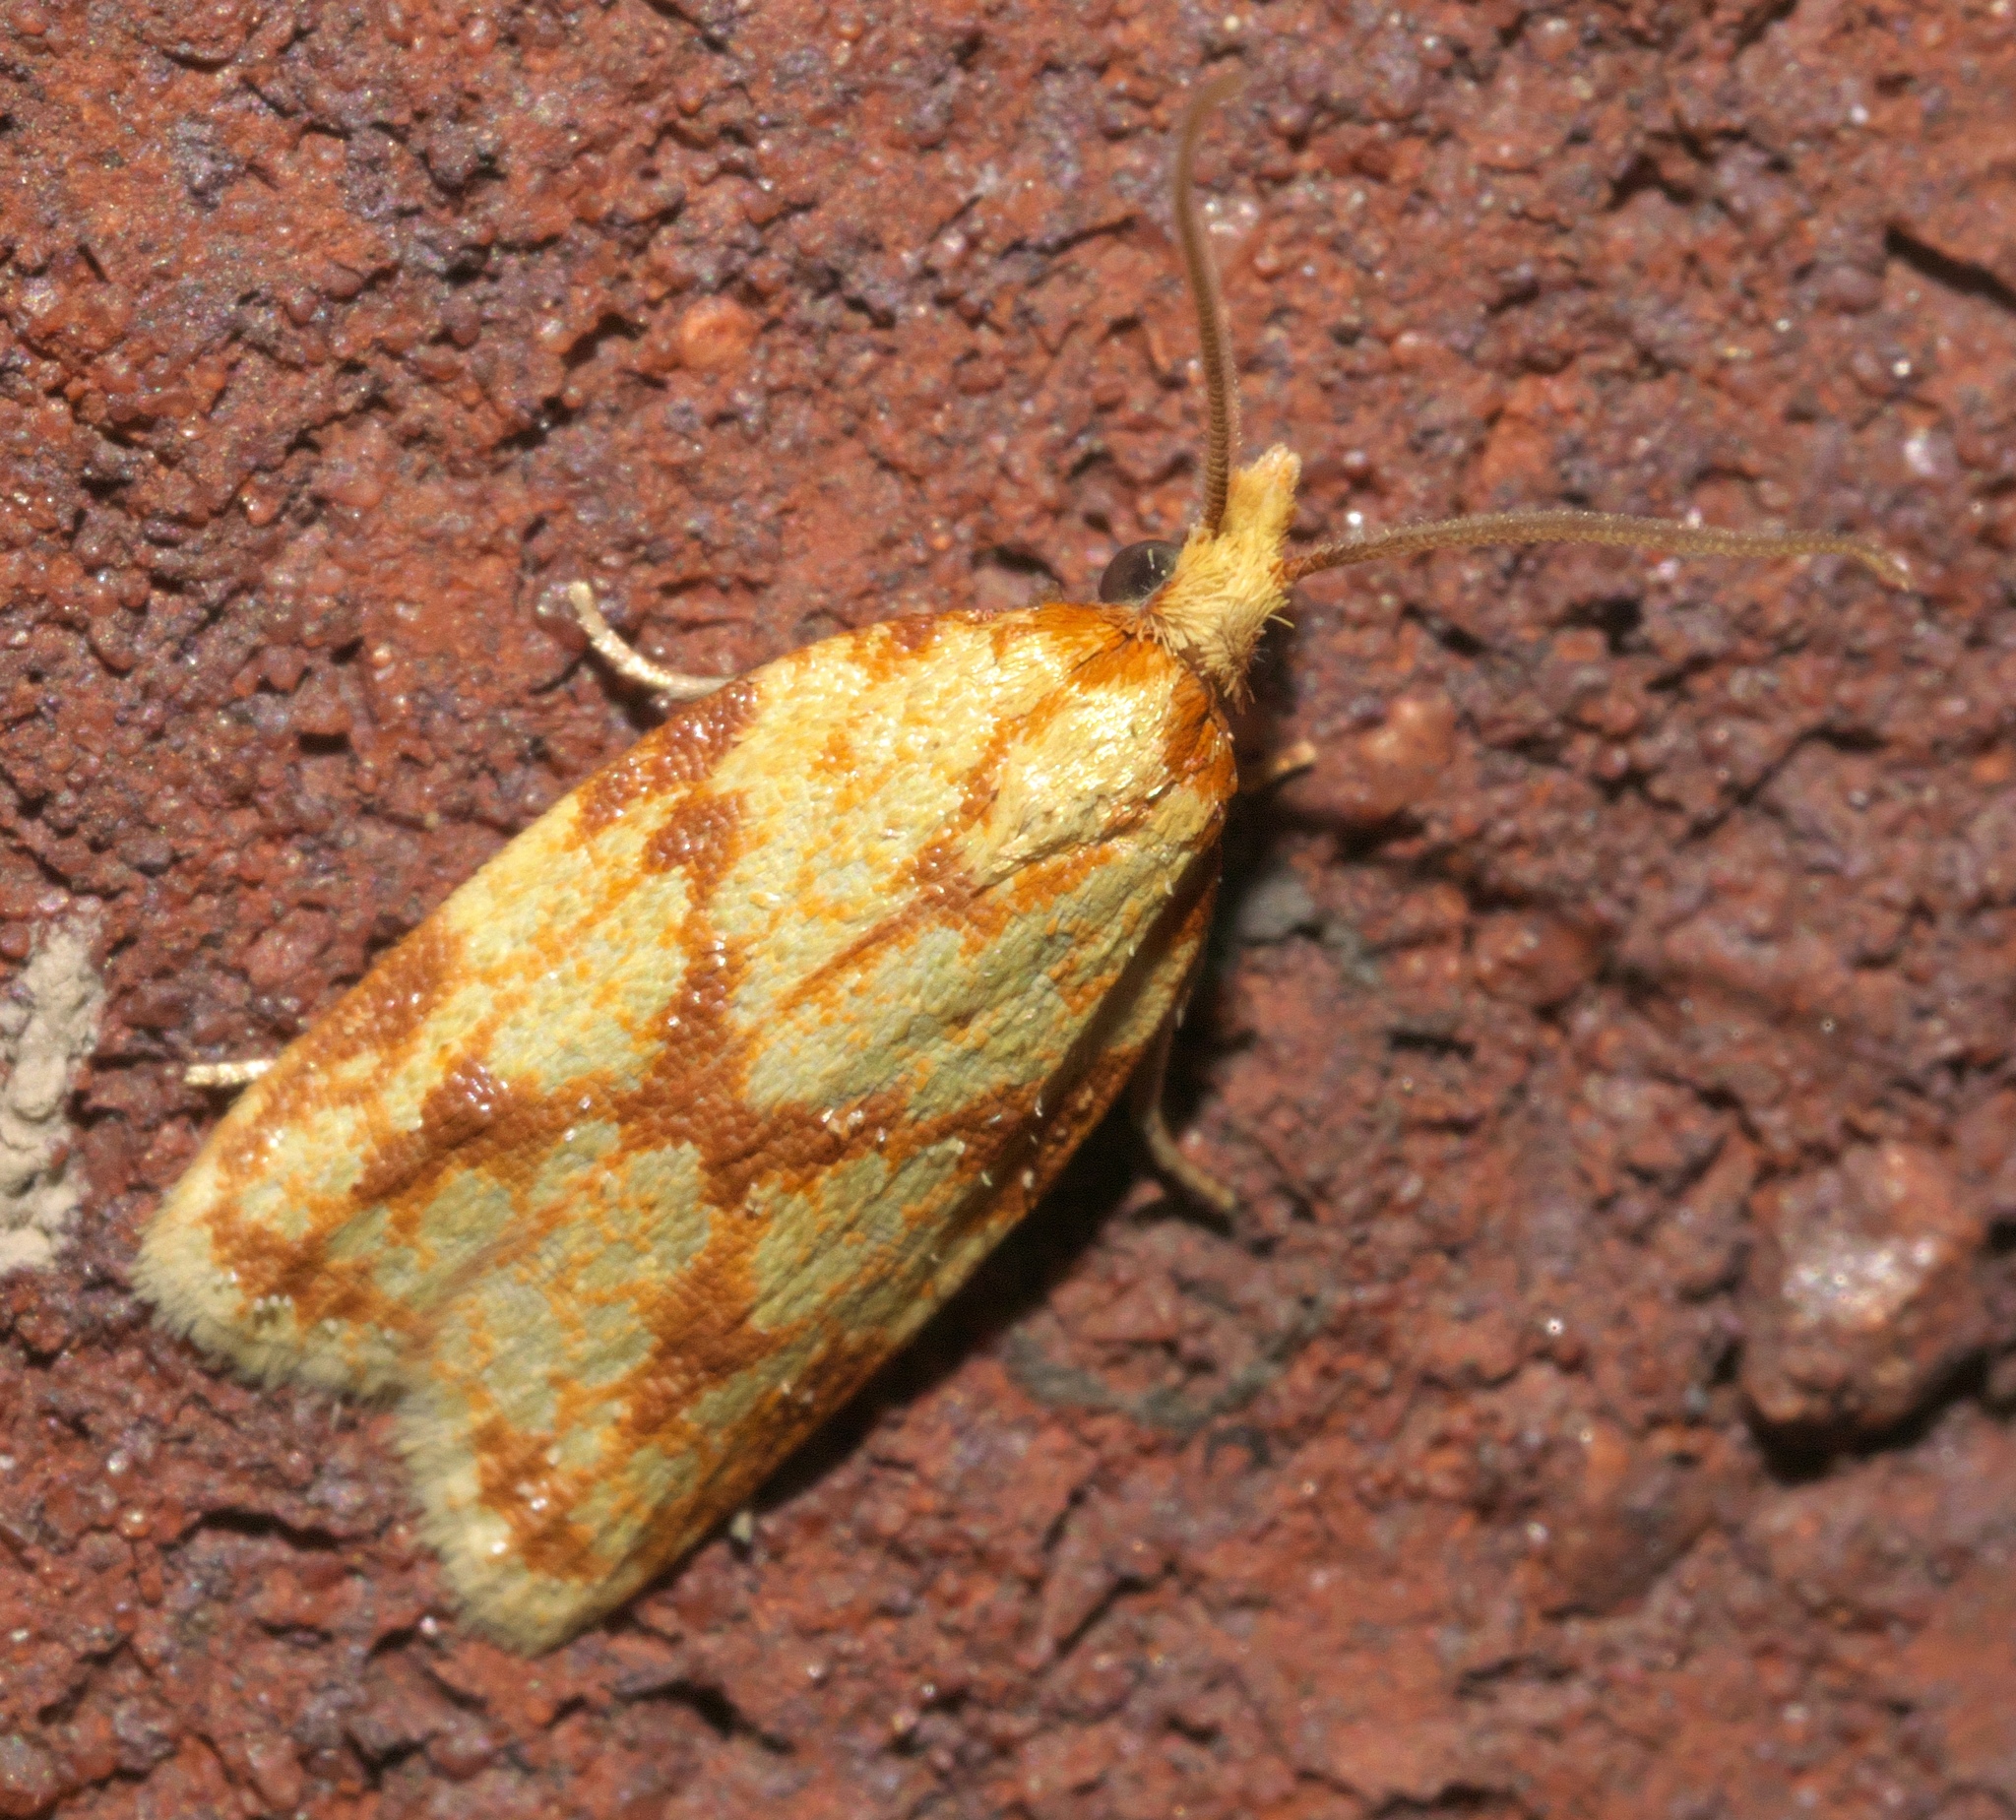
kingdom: Animalia
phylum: Arthropoda
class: Insecta
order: Lepidoptera
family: Tortricidae
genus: Sparganothis
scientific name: Sparganothis sulfureana
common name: Sparganothis fruitworm moth
